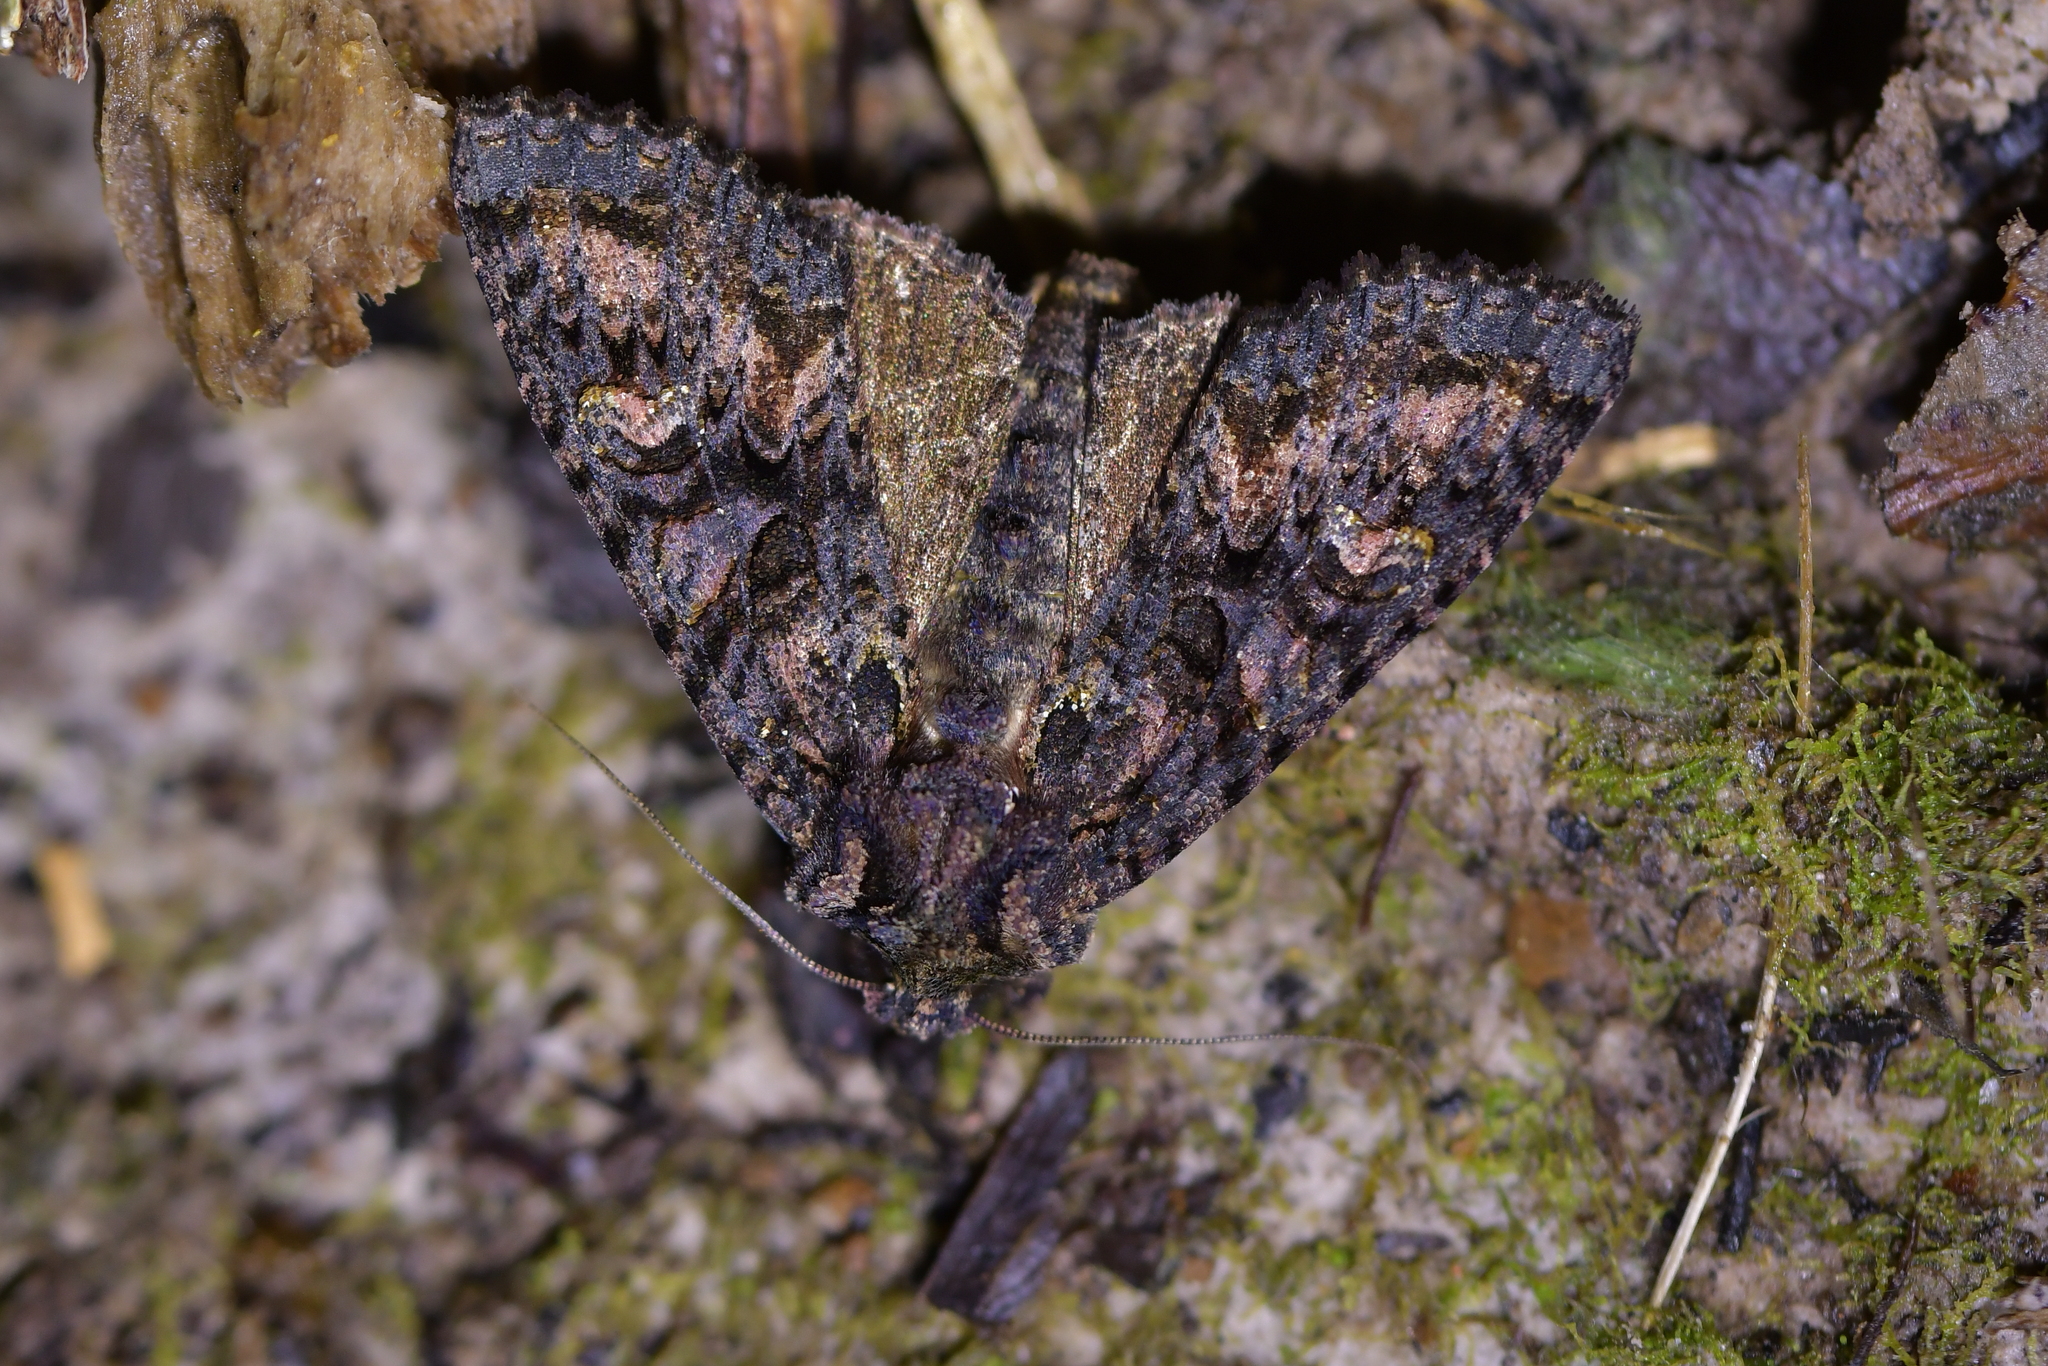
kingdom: Animalia
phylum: Arthropoda
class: Insecta
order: Lepidoptera
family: Noctuidae
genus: Meterana
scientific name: Meterana dotata
